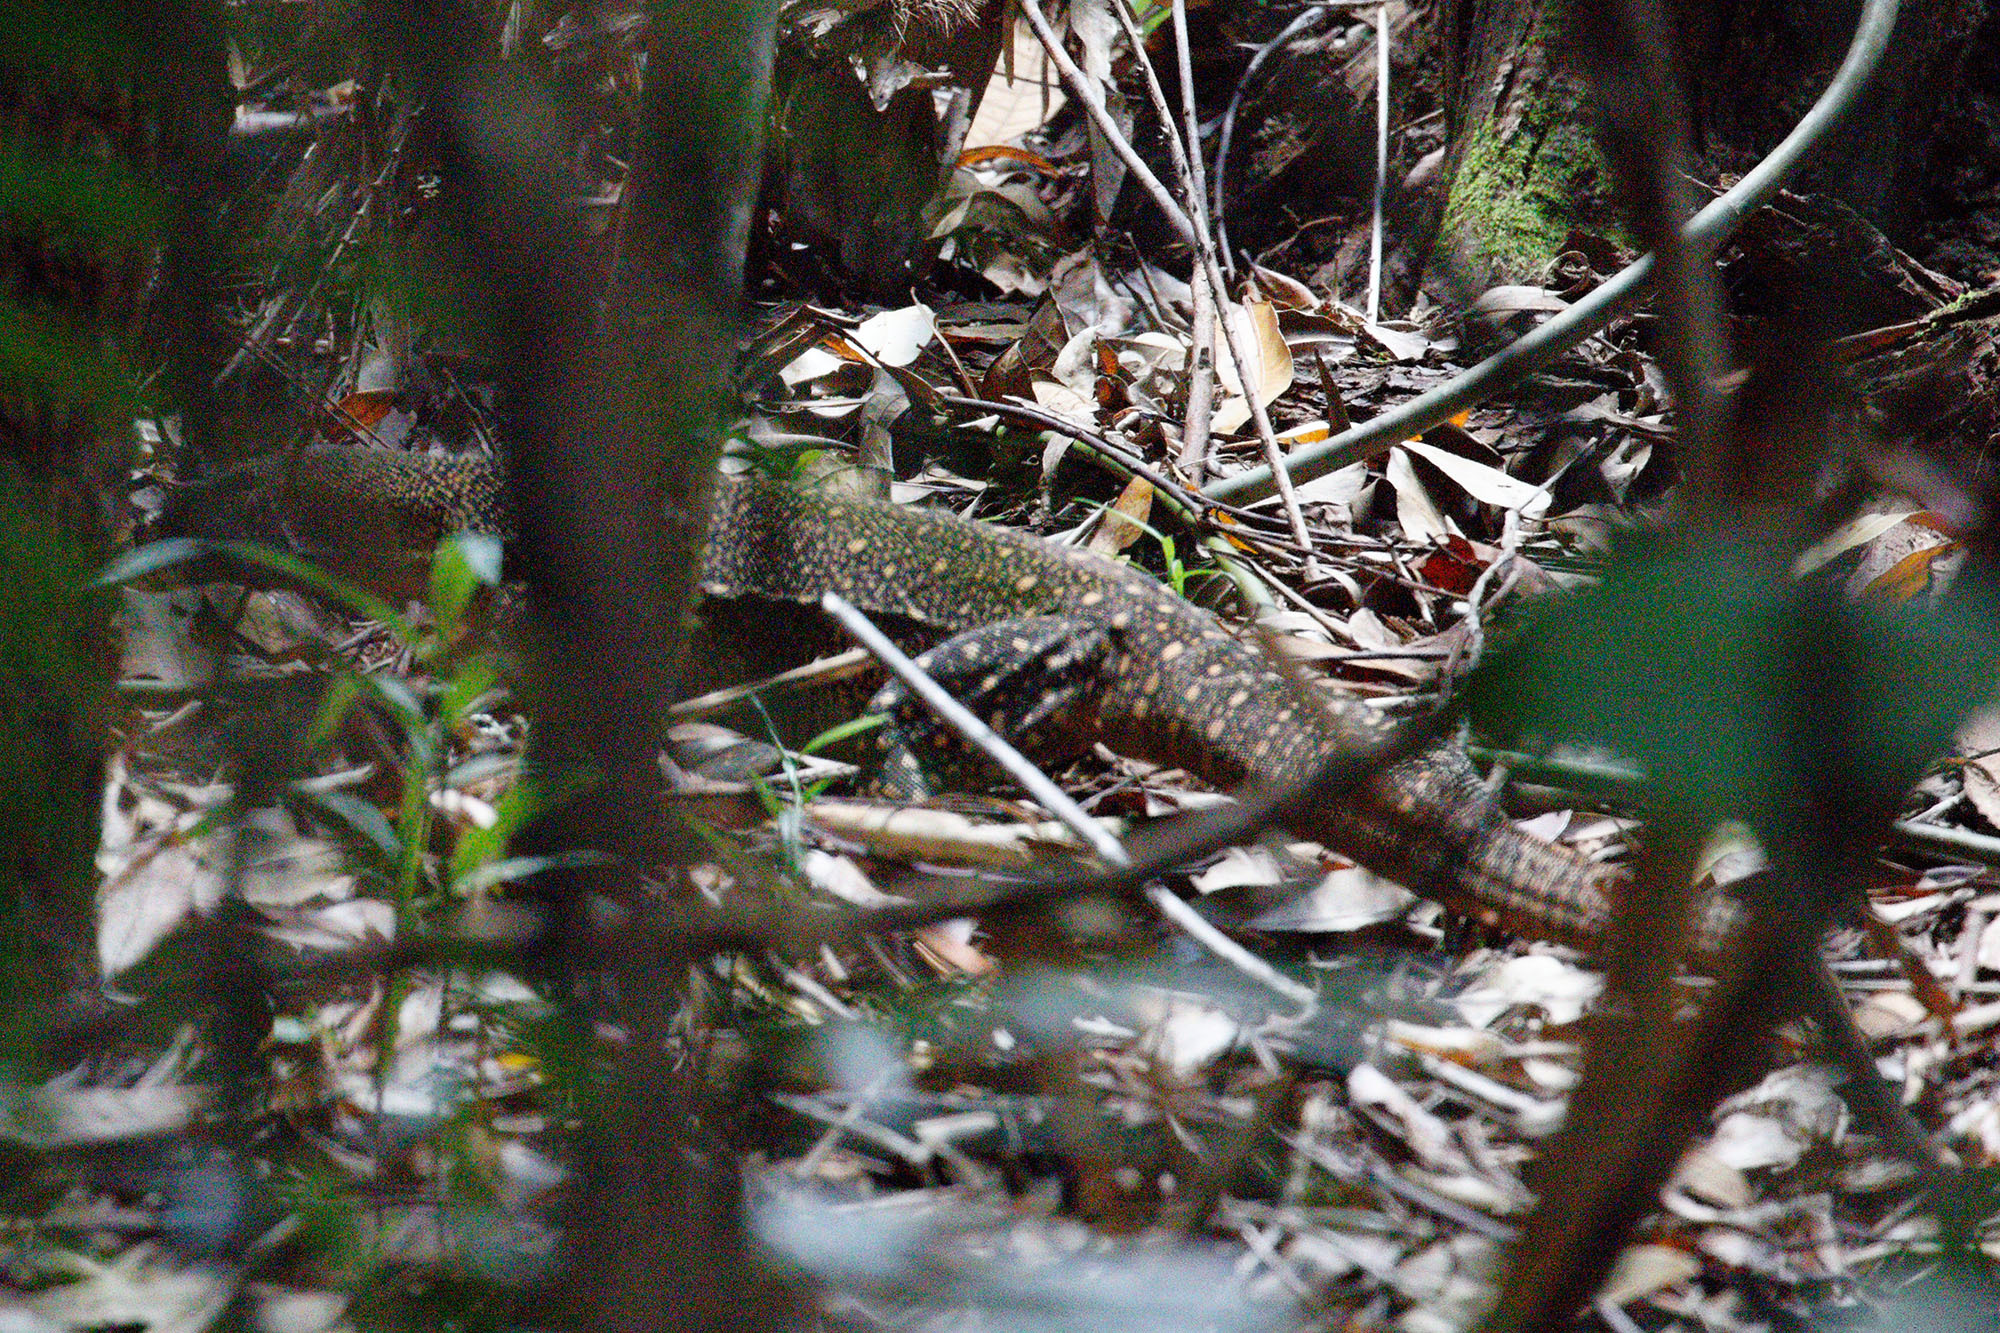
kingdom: Animalia
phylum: Chordata
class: Squamata
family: Varanidae
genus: Varanus
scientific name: Varanus varius
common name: Lace monitor
